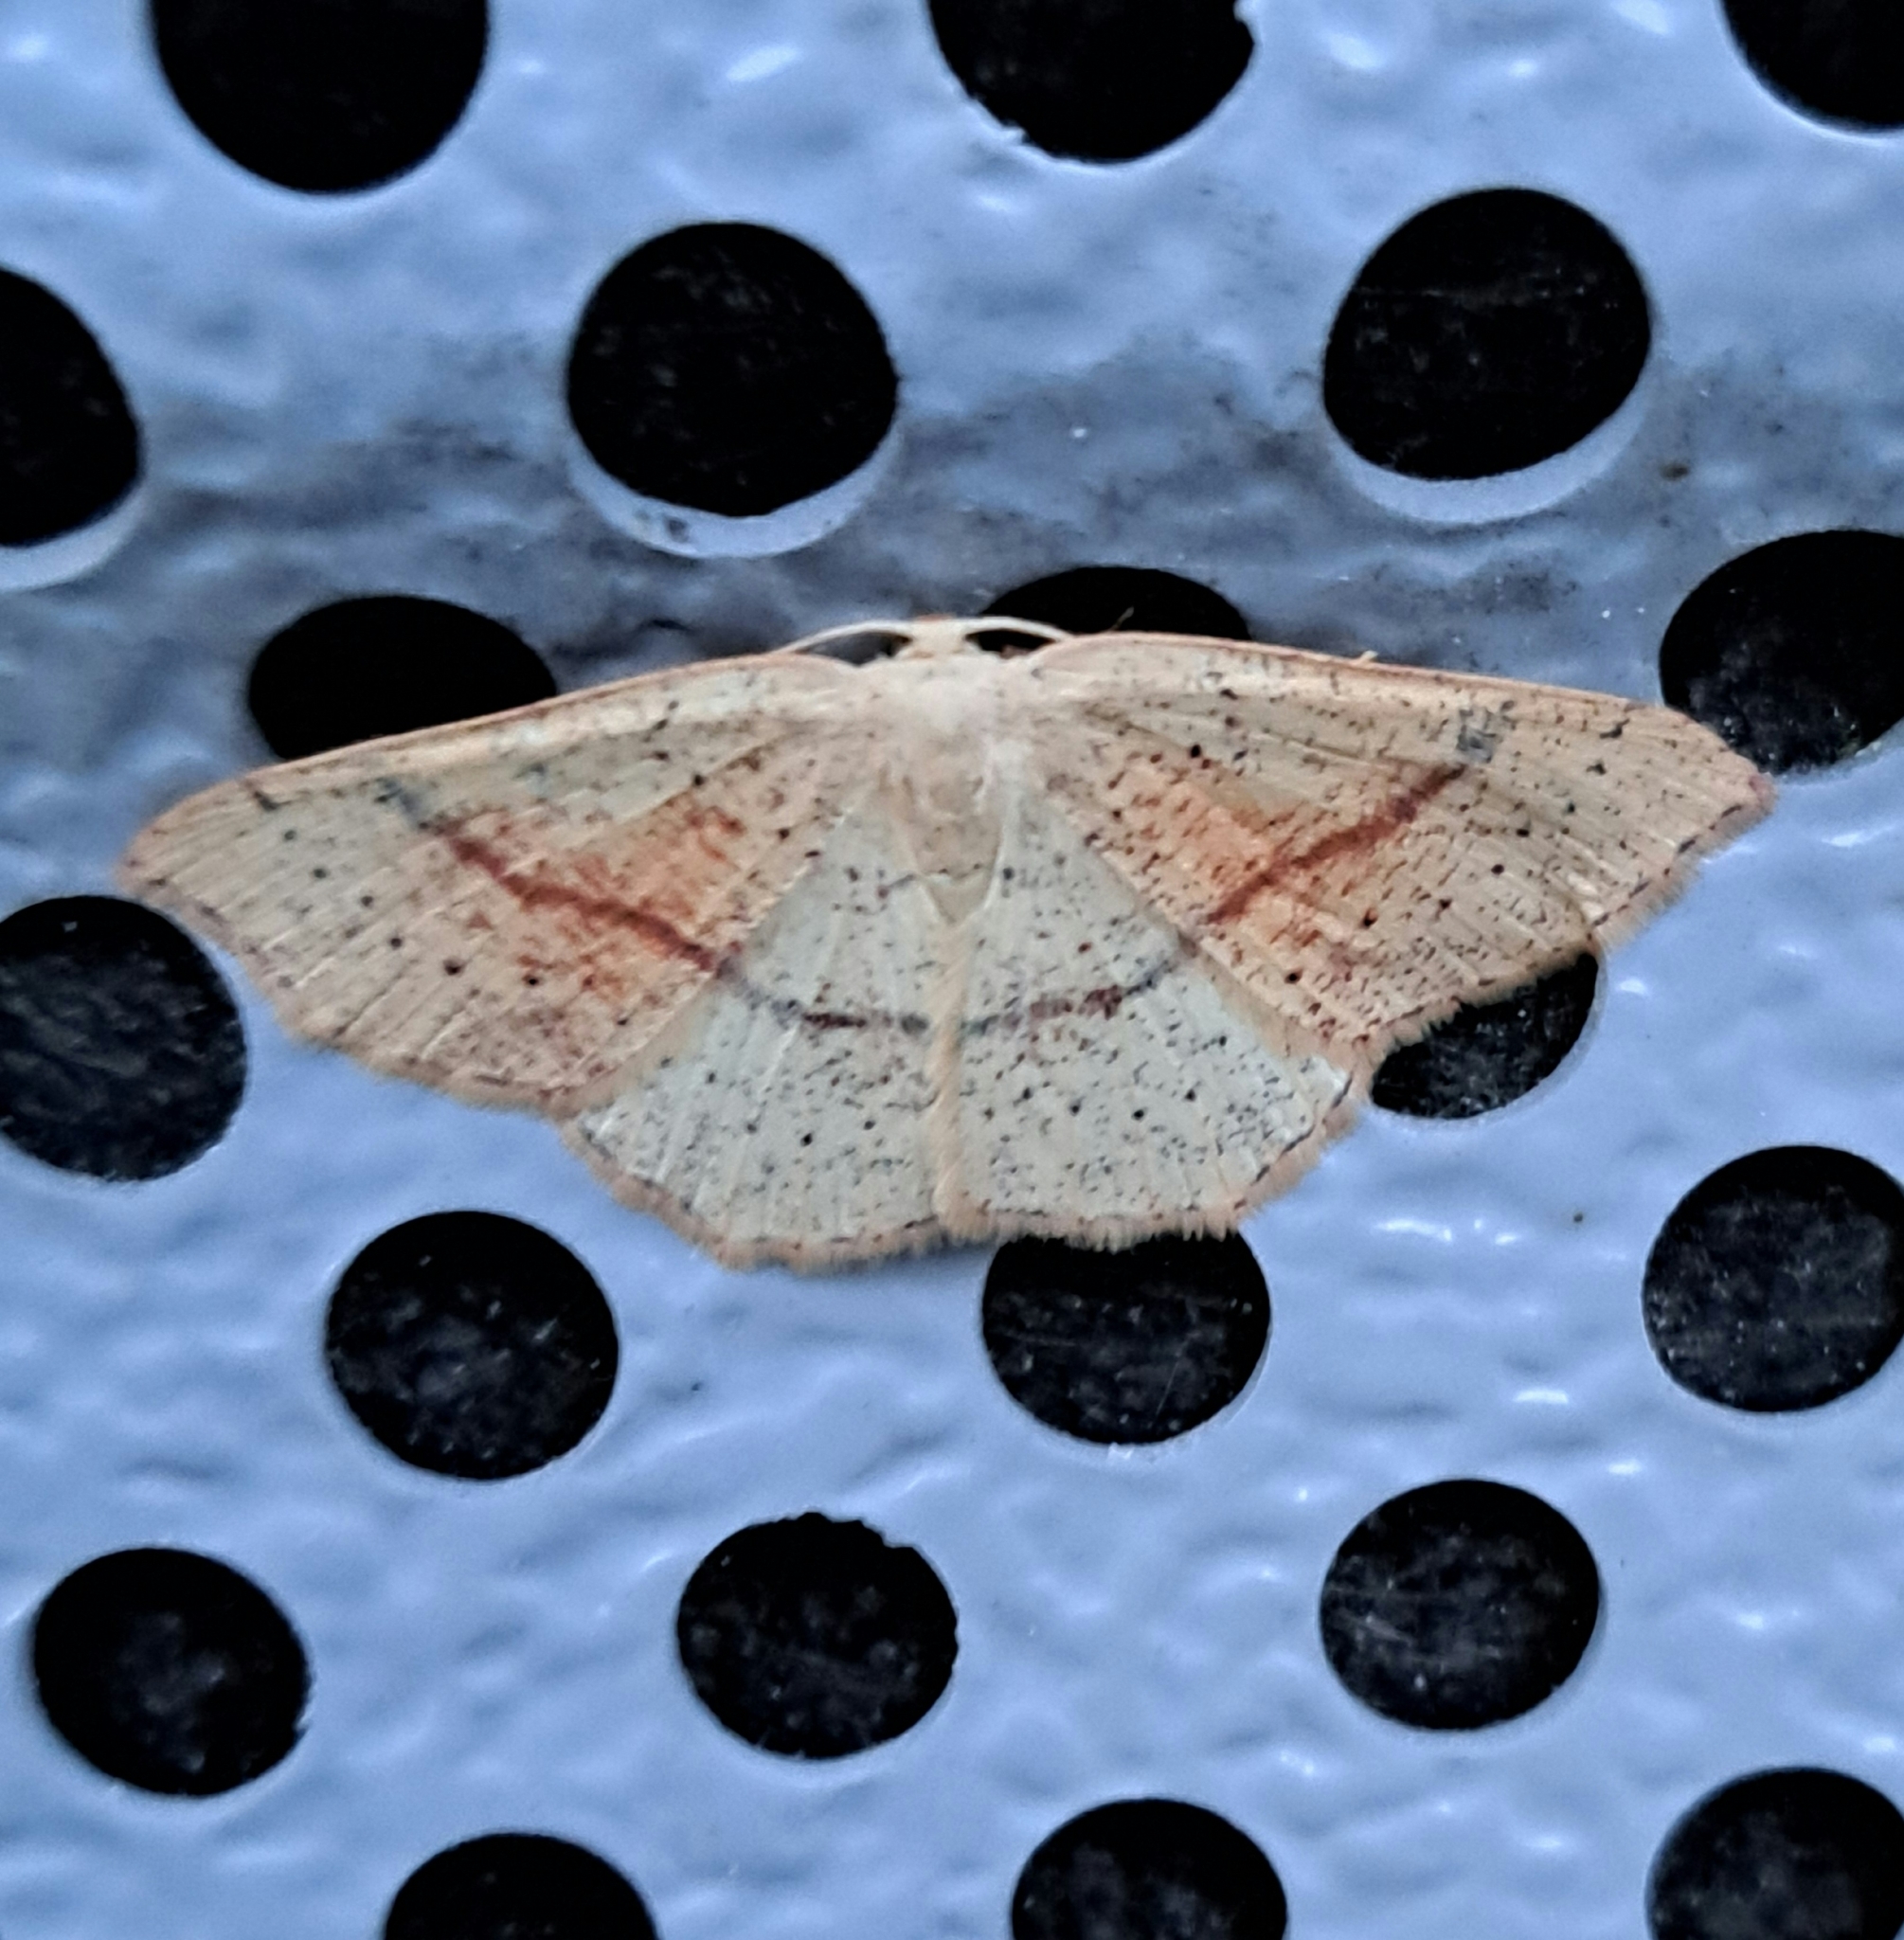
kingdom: Animalia
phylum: Arthropoda
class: Insecta
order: Lepidoptera
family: Geometridae
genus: Cyclophora
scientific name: Cyclophora punctaria
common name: Maiden's blush
